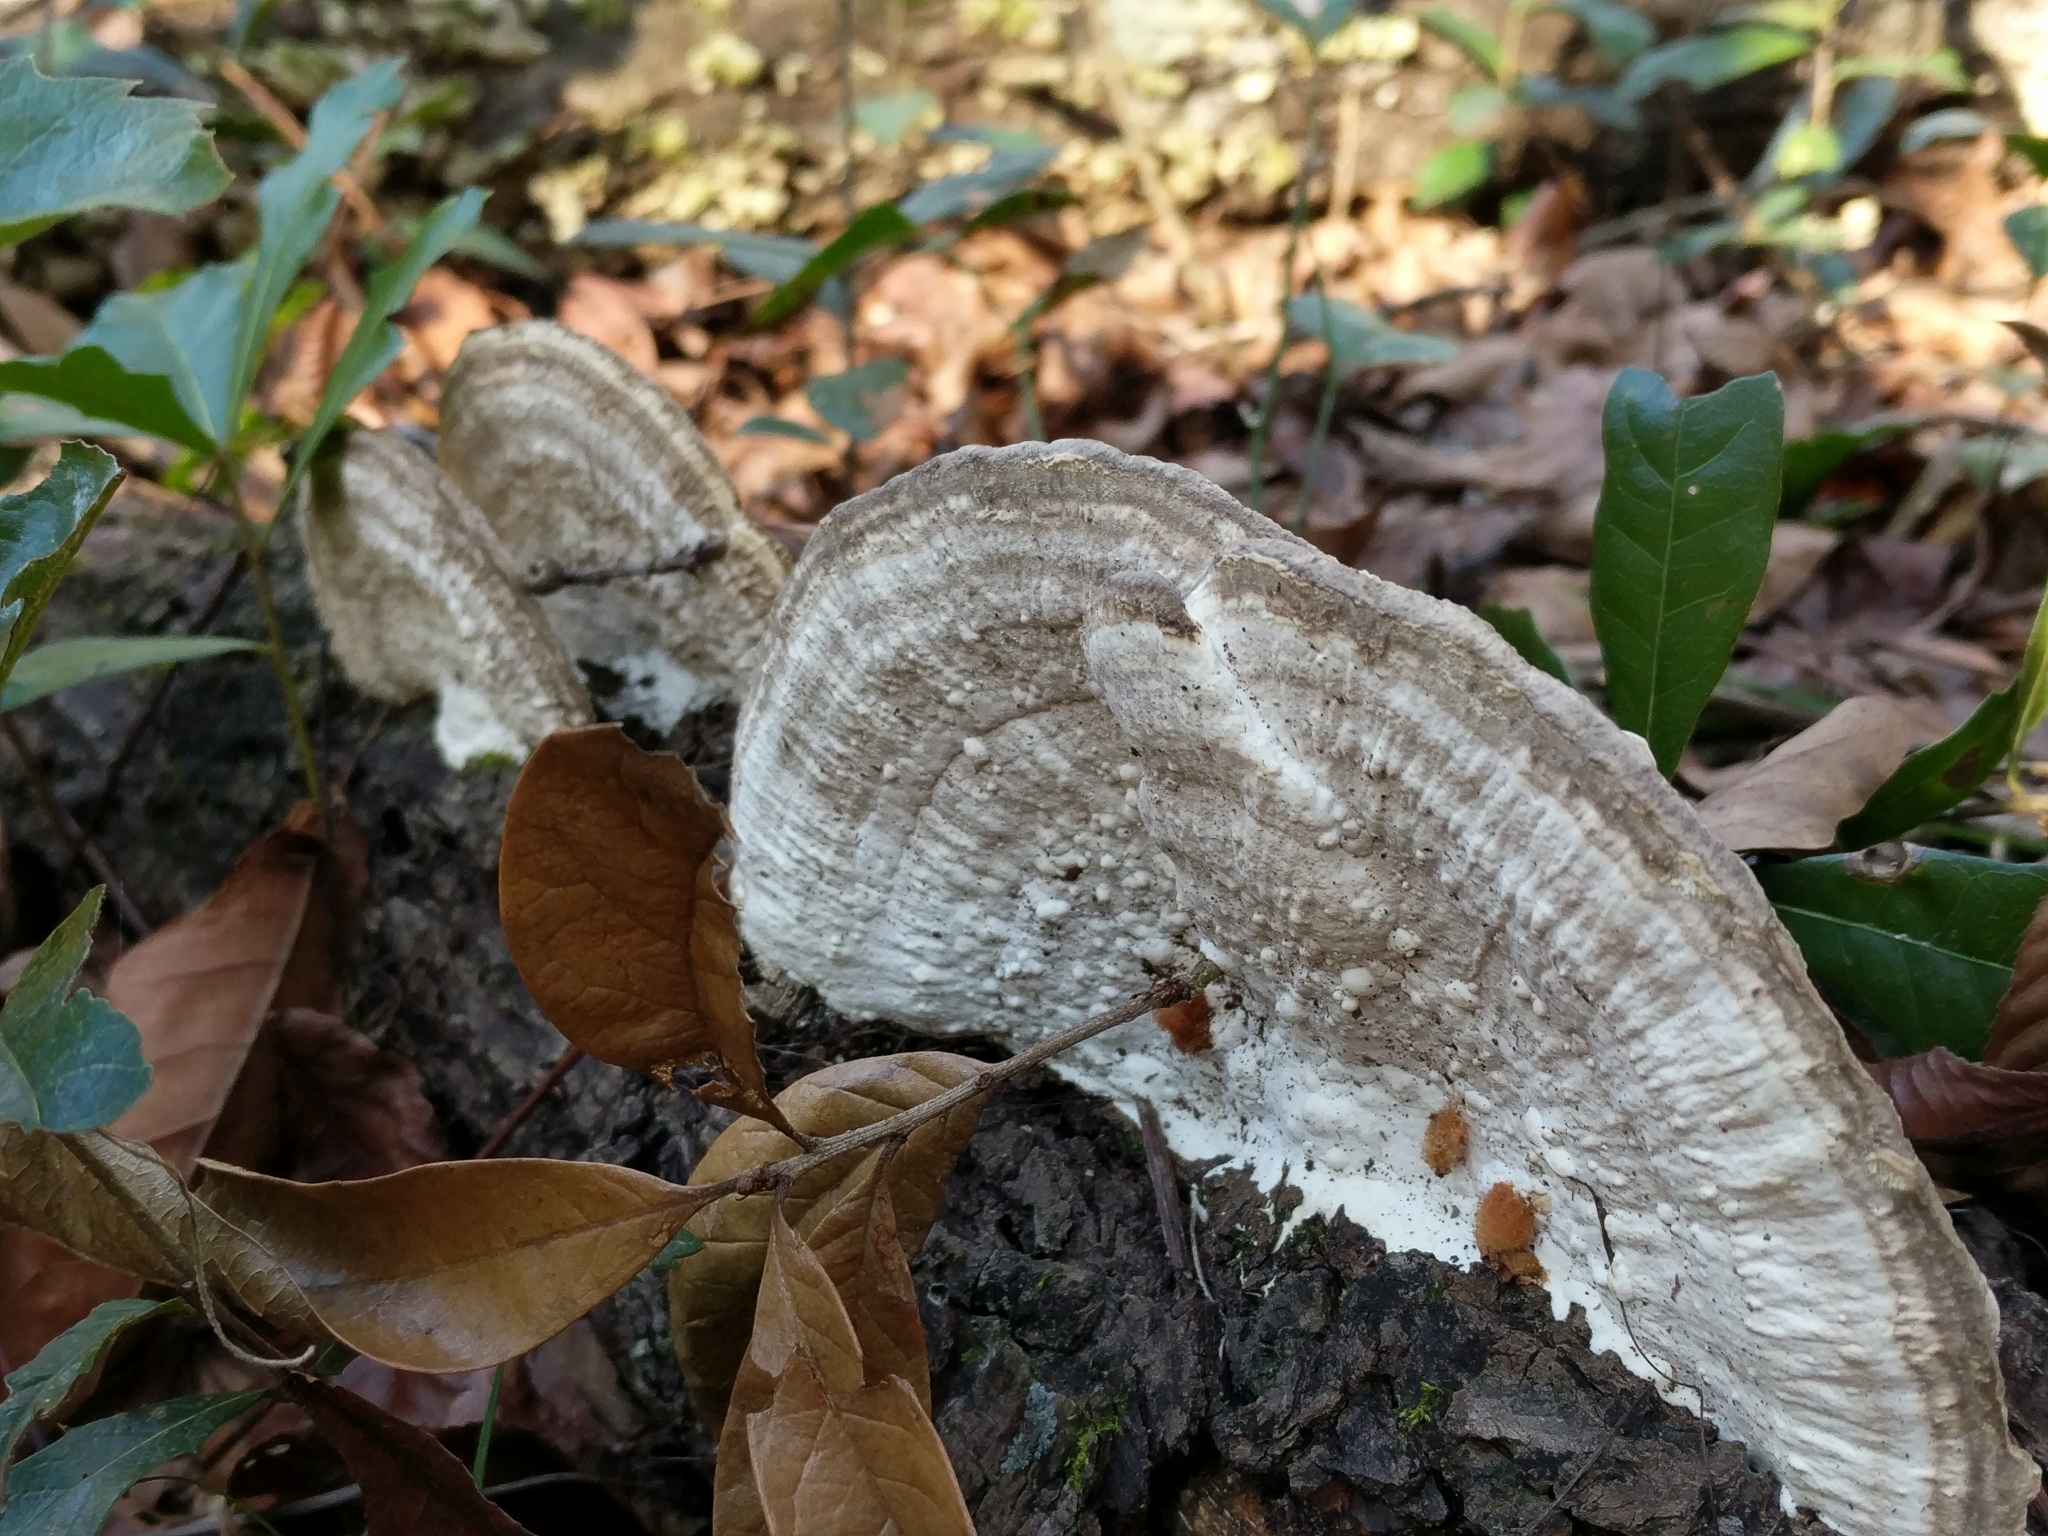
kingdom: Fungi
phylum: Basidiomycota
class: Agaricomycetes
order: Polyporales
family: Polyporaceae
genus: Trametes
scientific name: Trametes lactinea
